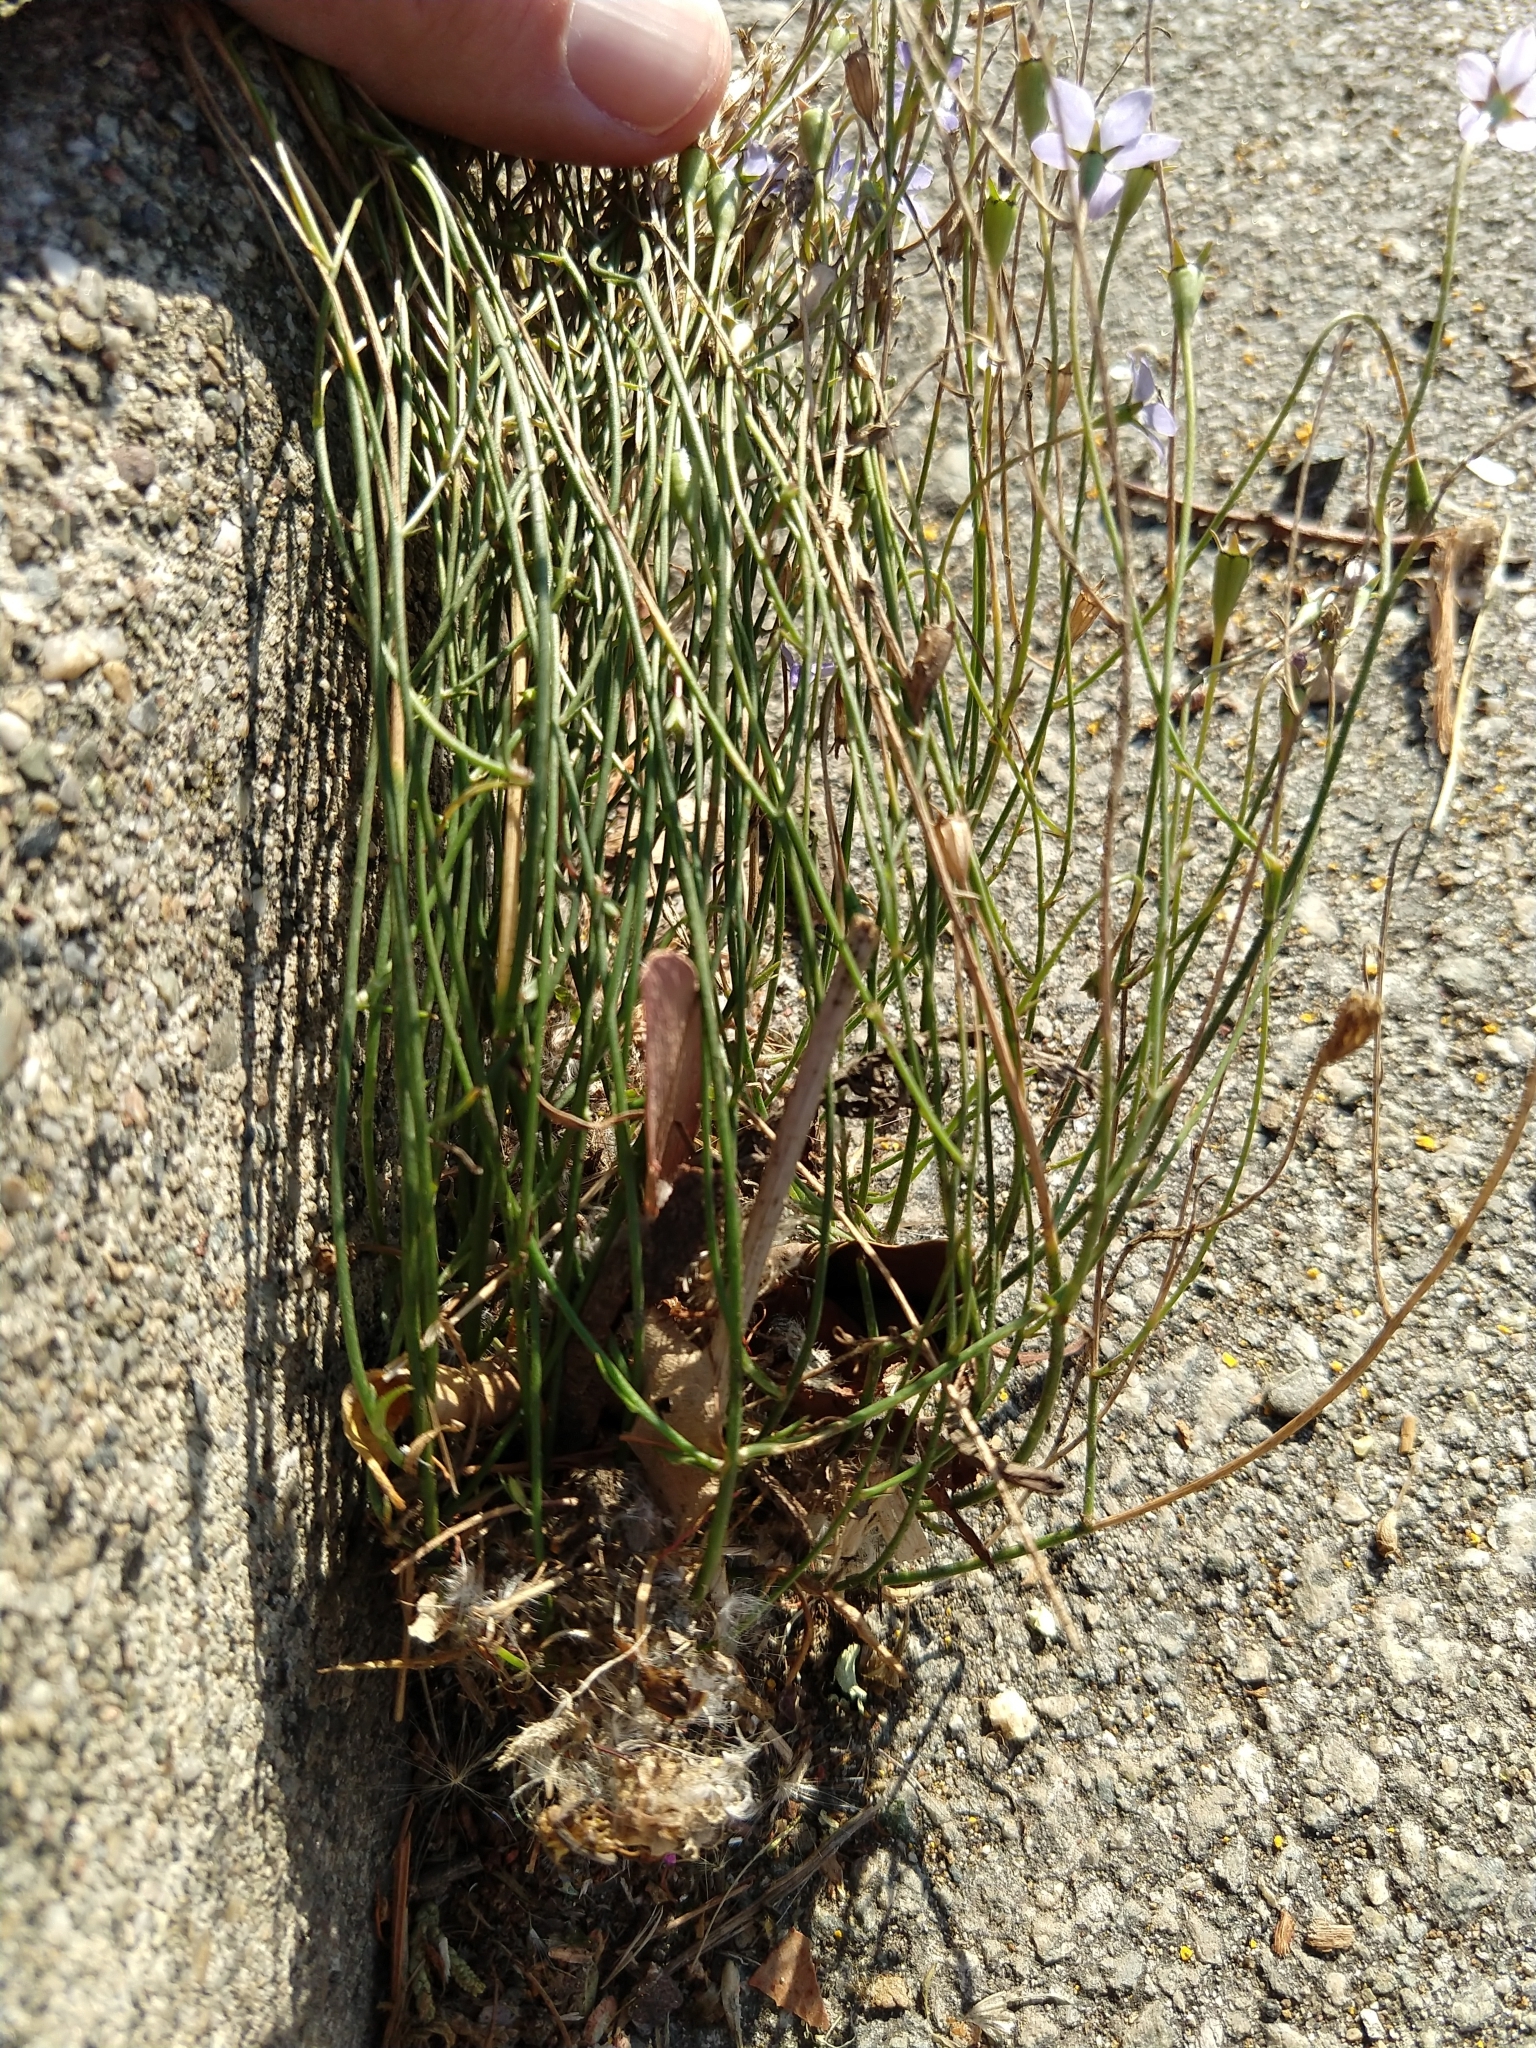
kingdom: Plantae
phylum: Tracheophyta
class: Magnoliopsida
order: Asterales
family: Campanulaceae
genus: Wahlenbergia
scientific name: Wahlenbergia marginata
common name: Southern rockbell
